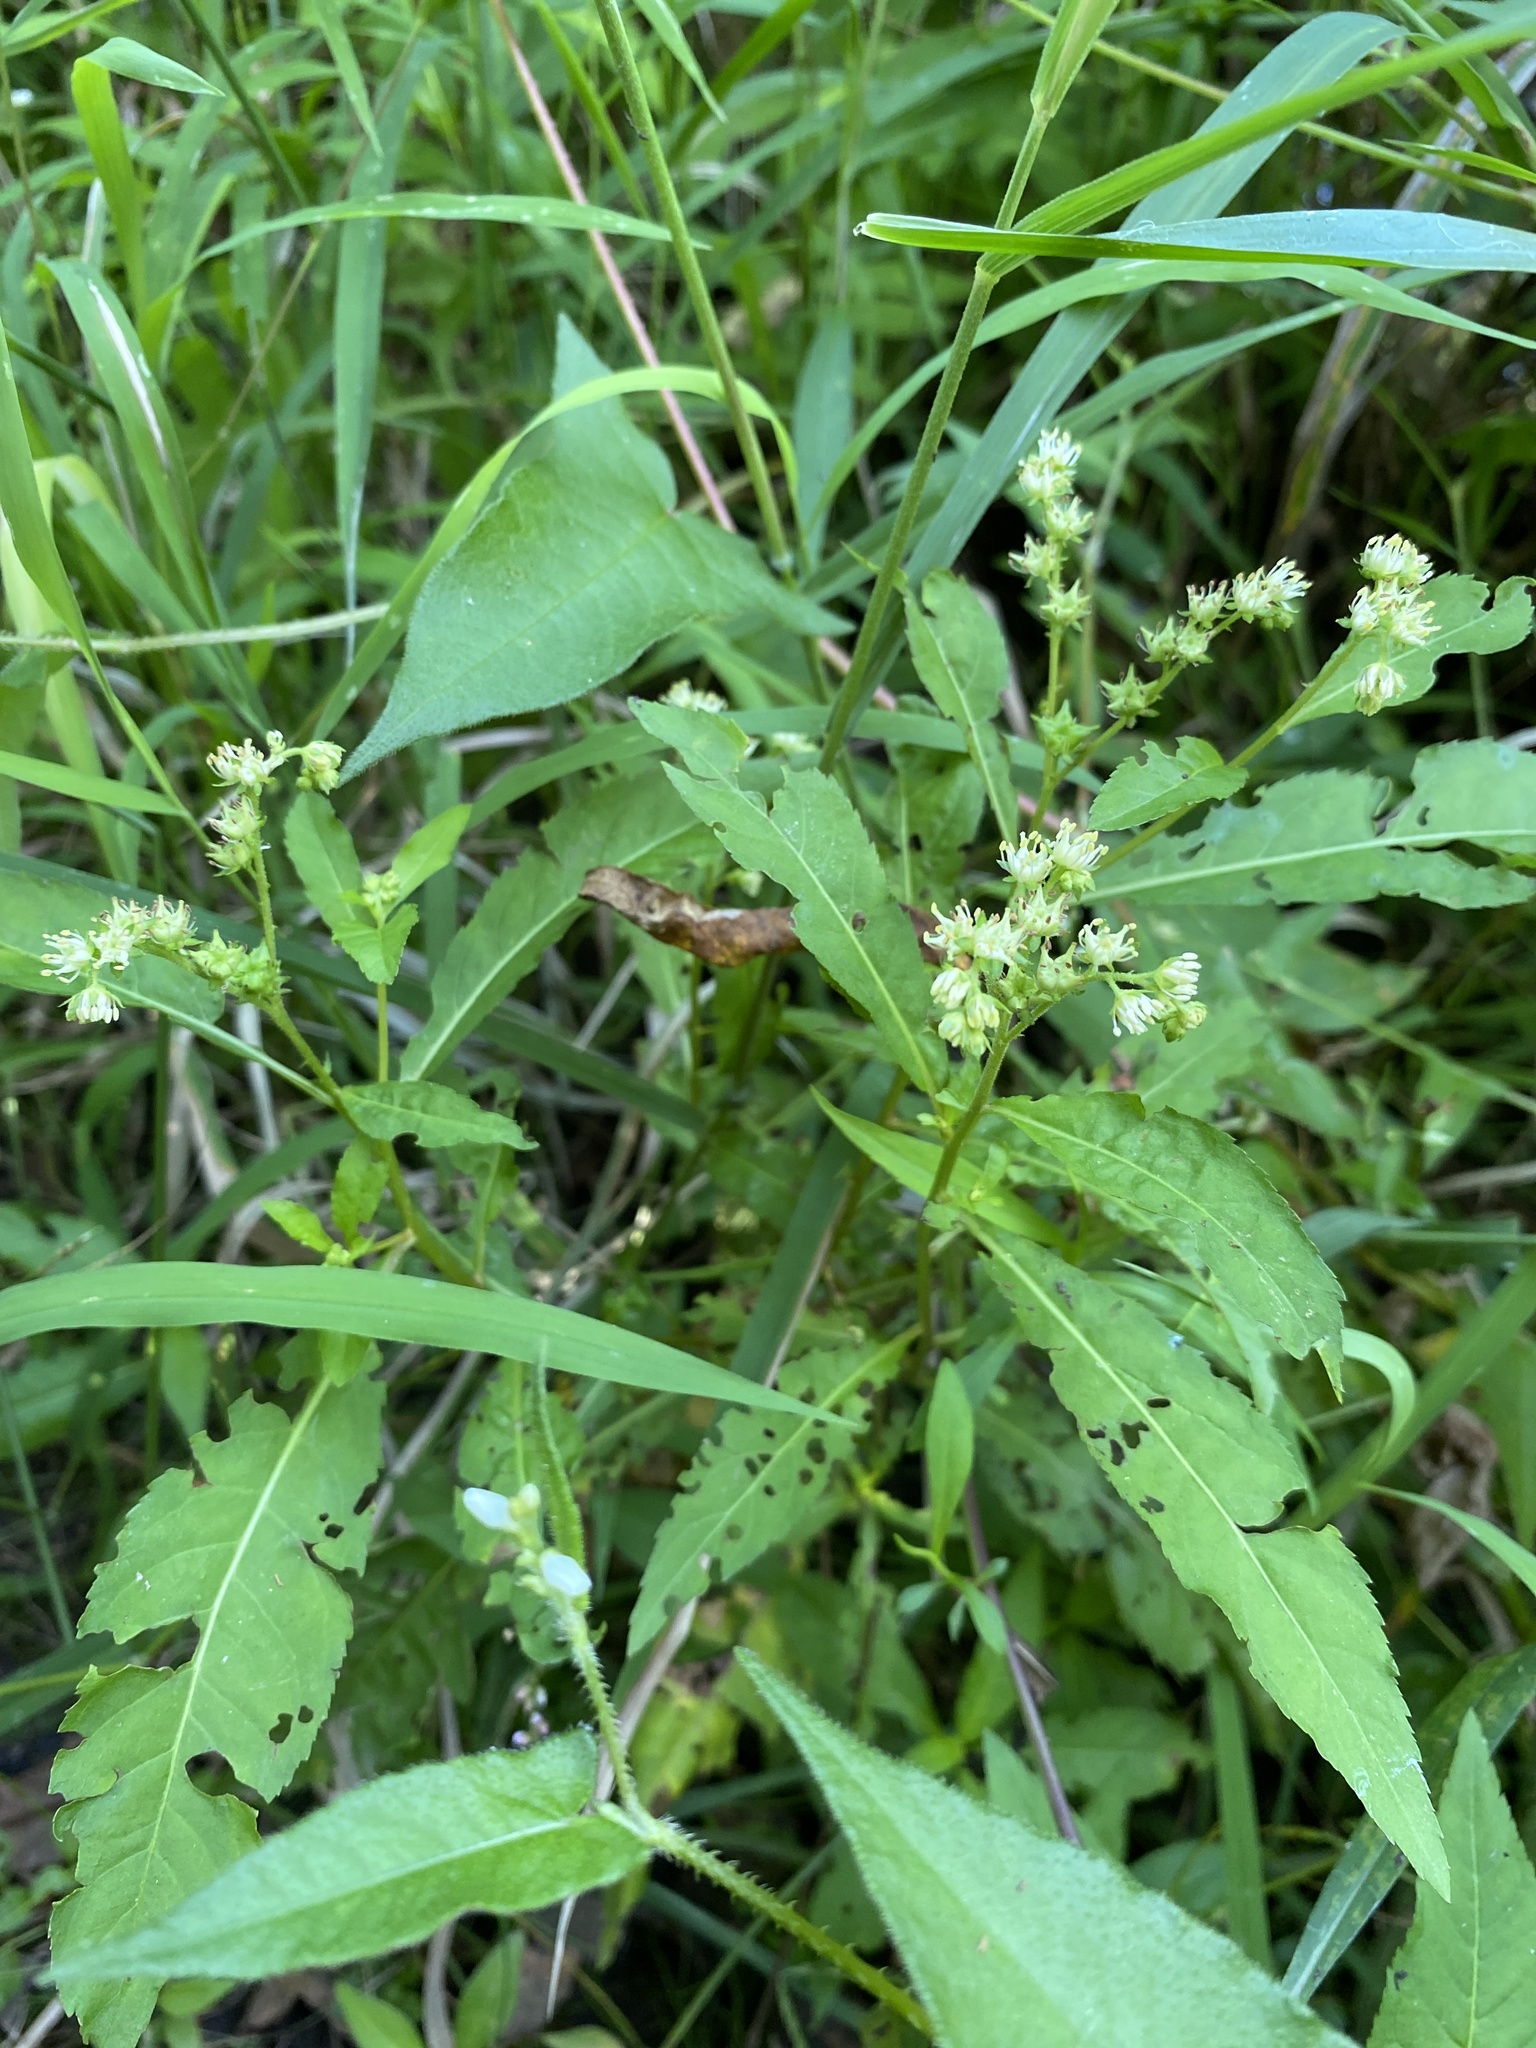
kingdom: Plantae
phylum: Tracheophyta
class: Magnoliopsida
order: Saxifragales
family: Penthoraceae
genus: Penthorum
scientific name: Penthorum sedoides
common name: Ditch stonecrop
